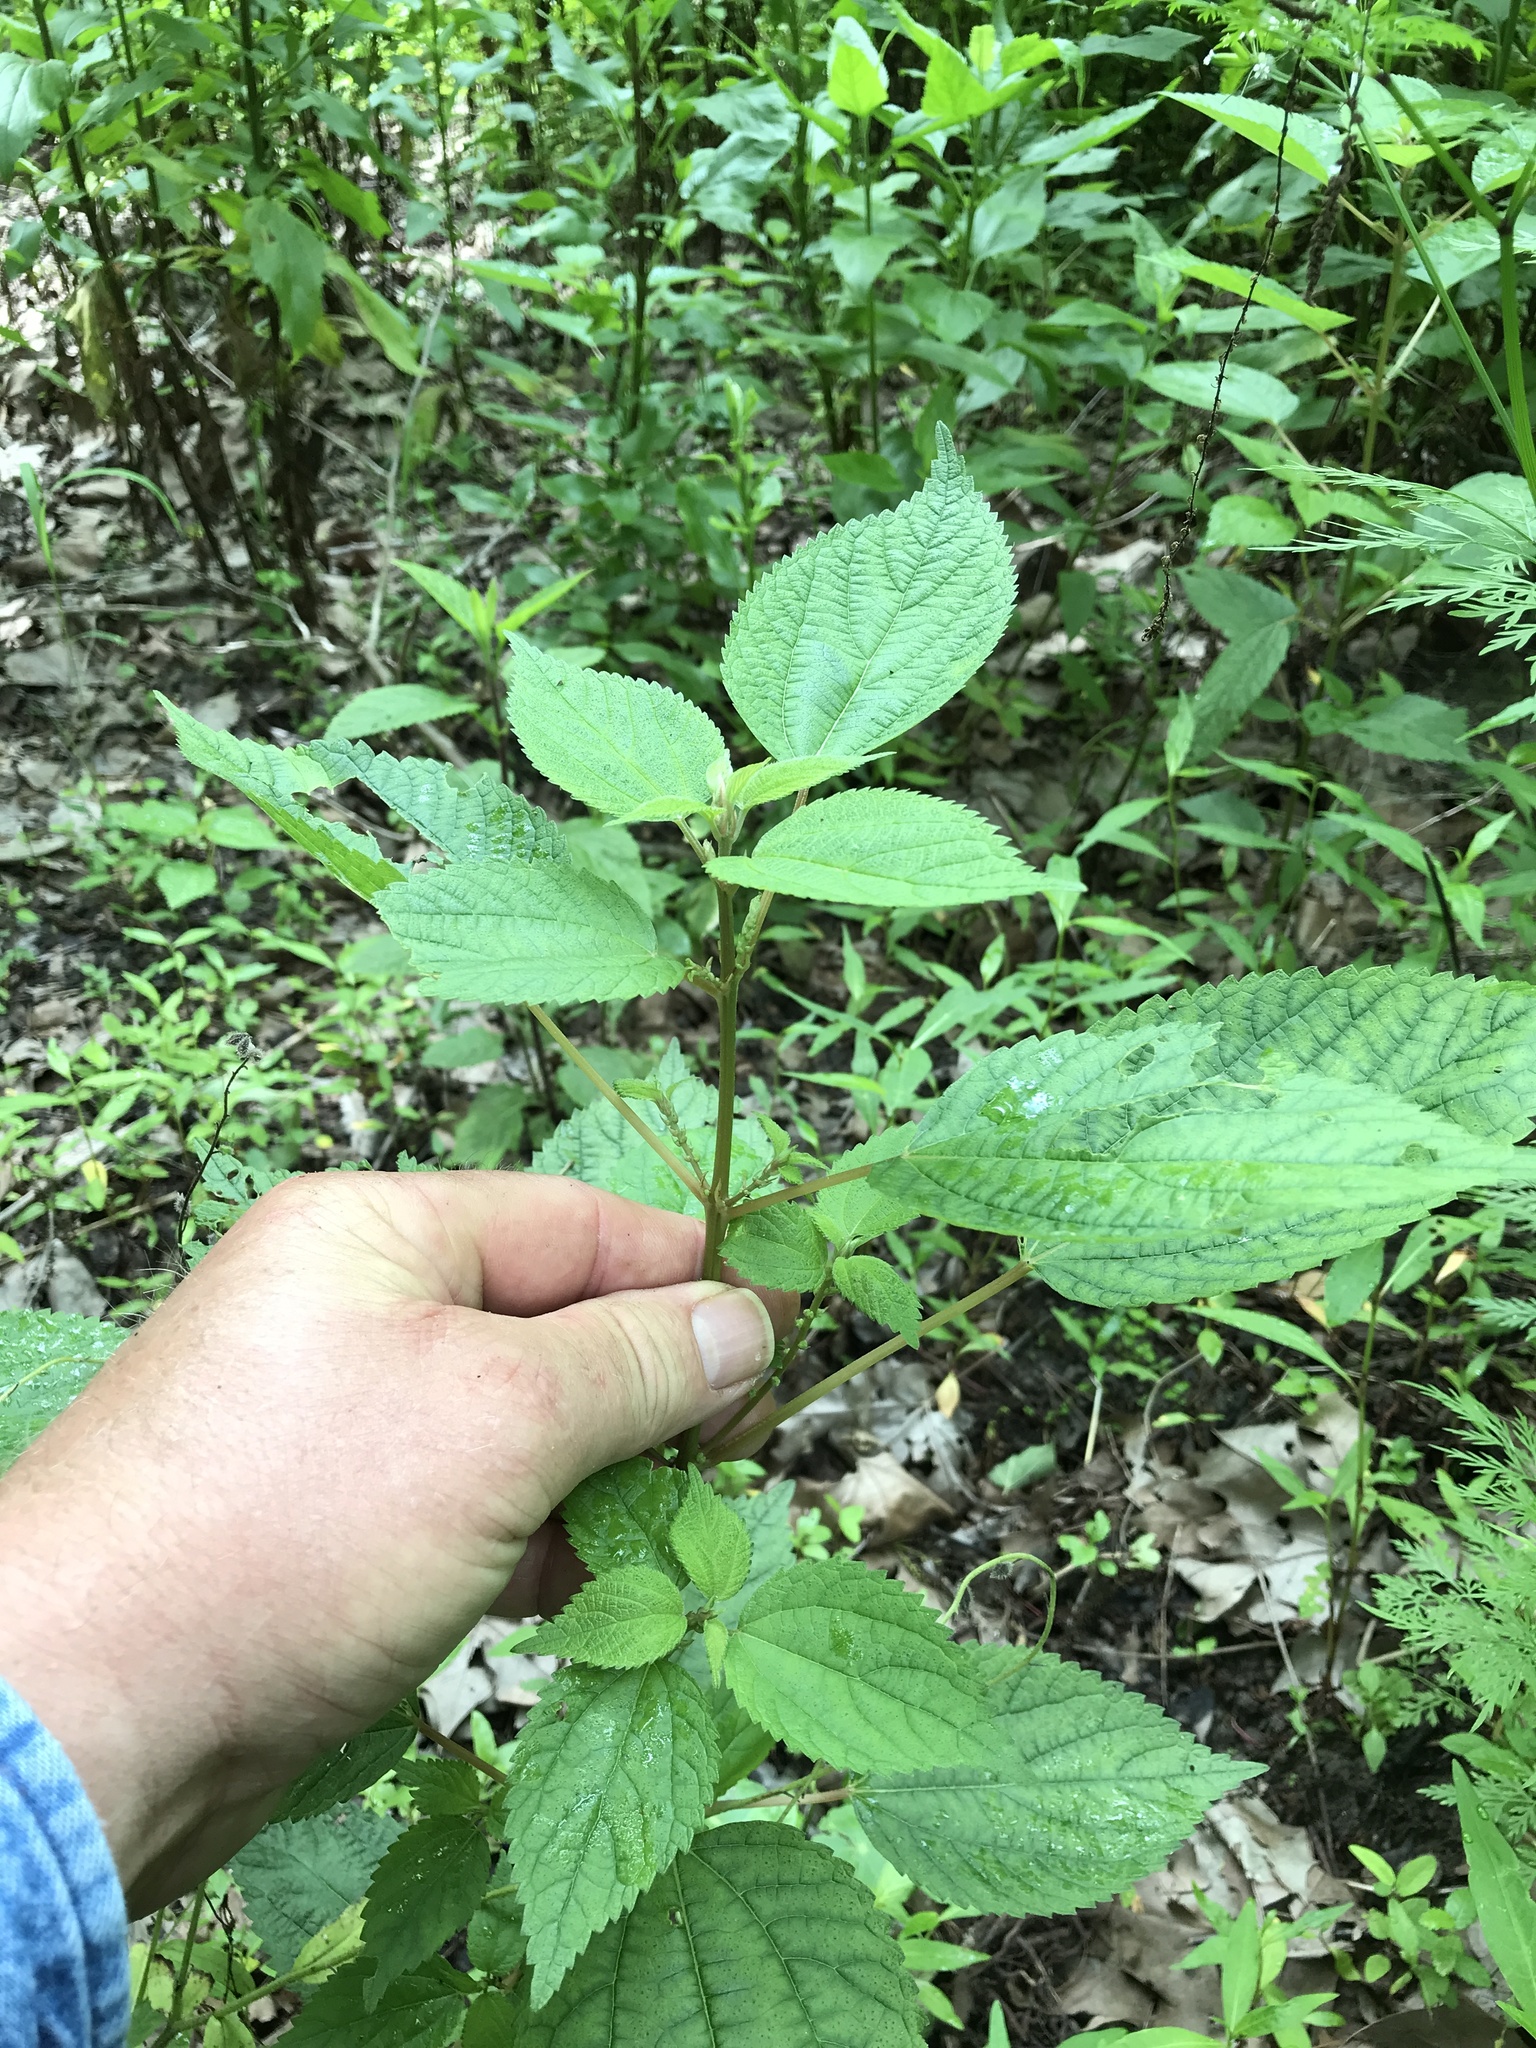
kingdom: Plantae
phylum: Tracheophyta
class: Magnoliopsida
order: Rosales
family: Urticaceae
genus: Boehmeria
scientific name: Boehmeria cylindrica
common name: Bog-hemp
